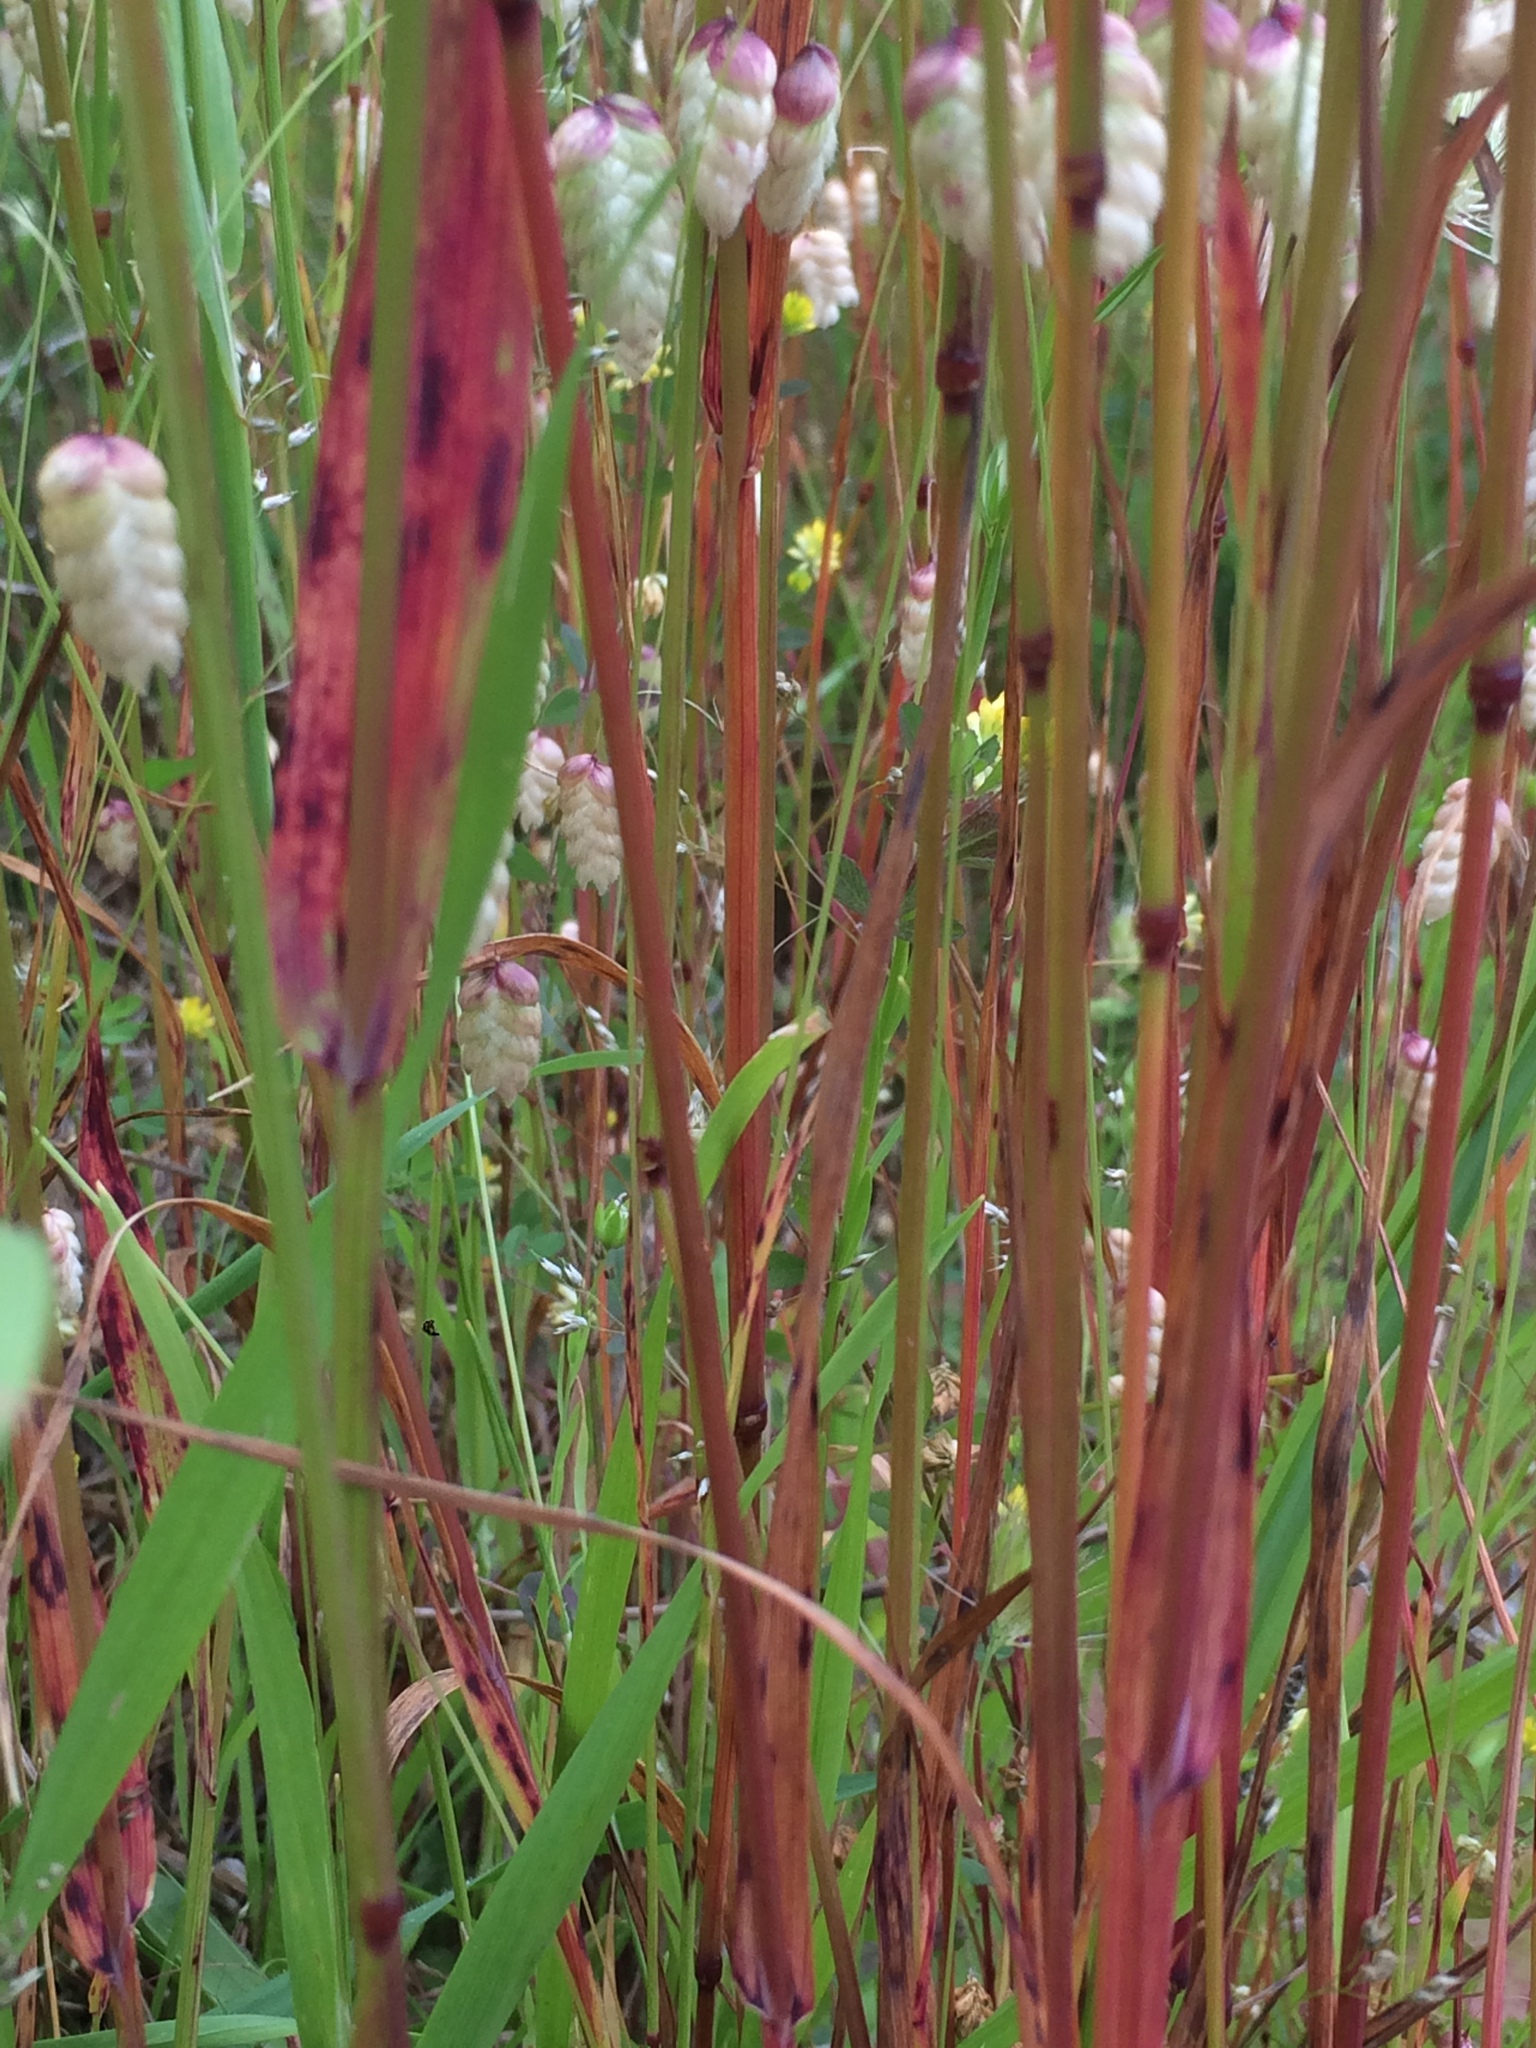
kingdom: Plantae
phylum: Tracheophyta
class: Liliopsida
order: Poales
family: Poaceae
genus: Briza
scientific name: Briza maxima
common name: Big quakinggrass
